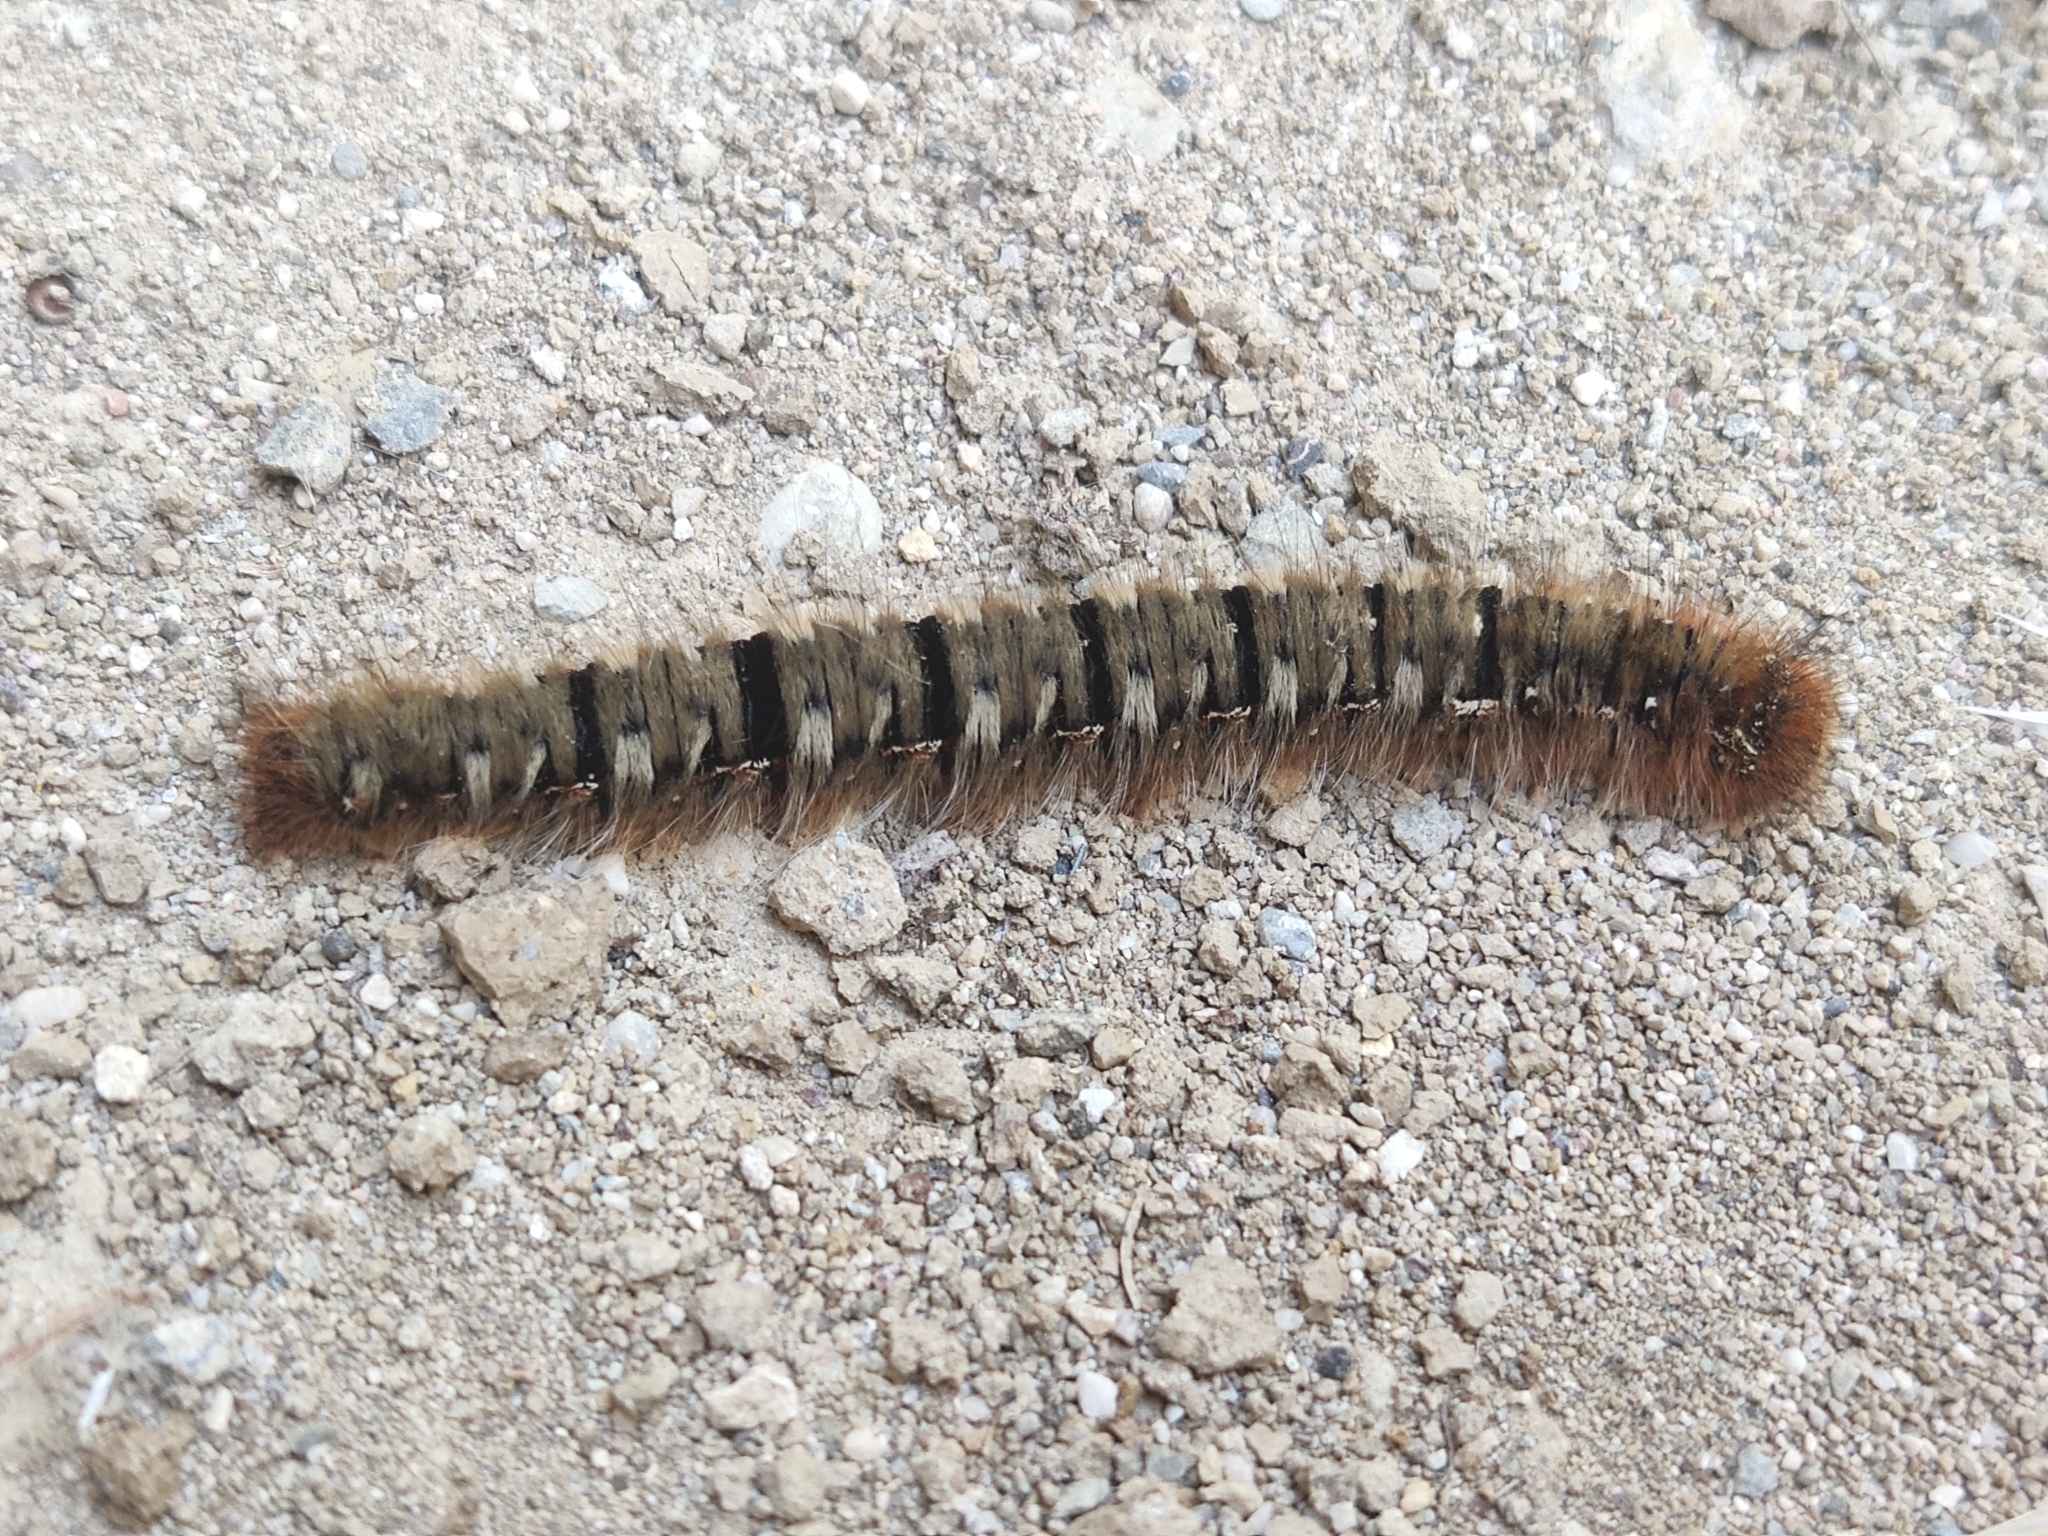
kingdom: Animalia
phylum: Arthropoda
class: Insecta
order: Lepidoptera
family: Lasiocampidae
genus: Lasiocampa
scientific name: Lasiocampa quercus
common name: Oak eggar
